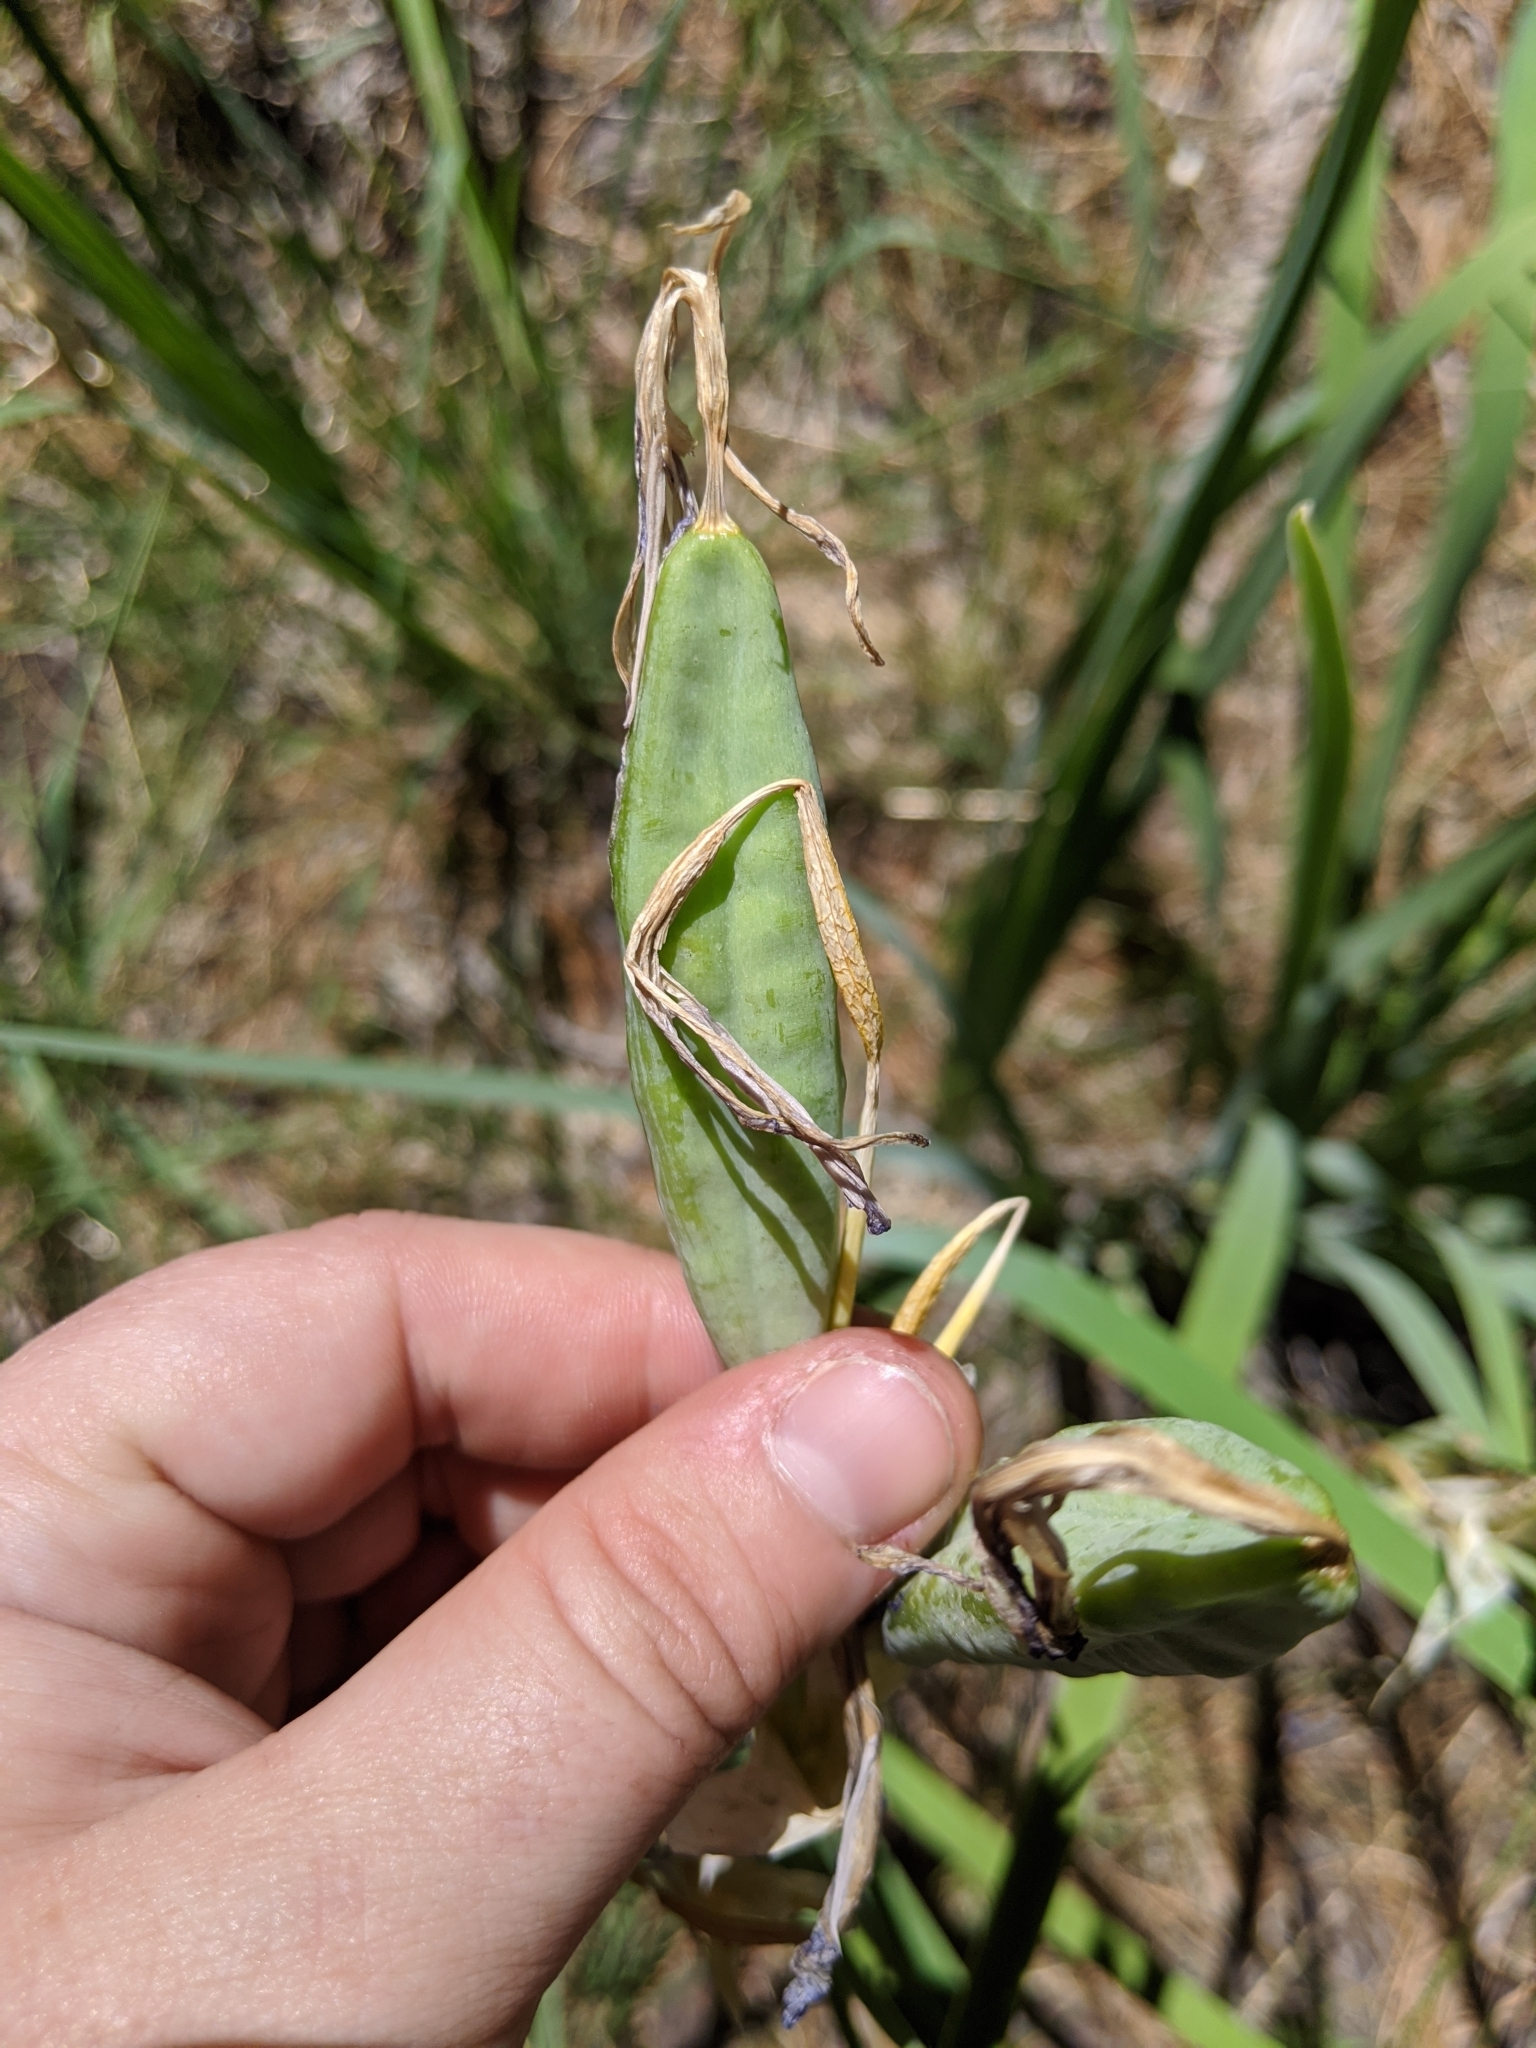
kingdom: Plantae
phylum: Tracheophyta
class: Liliopsida
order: Asparagales
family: Iridaceae
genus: Iris
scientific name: Iris missouriensis
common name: Rocky mountain iris
